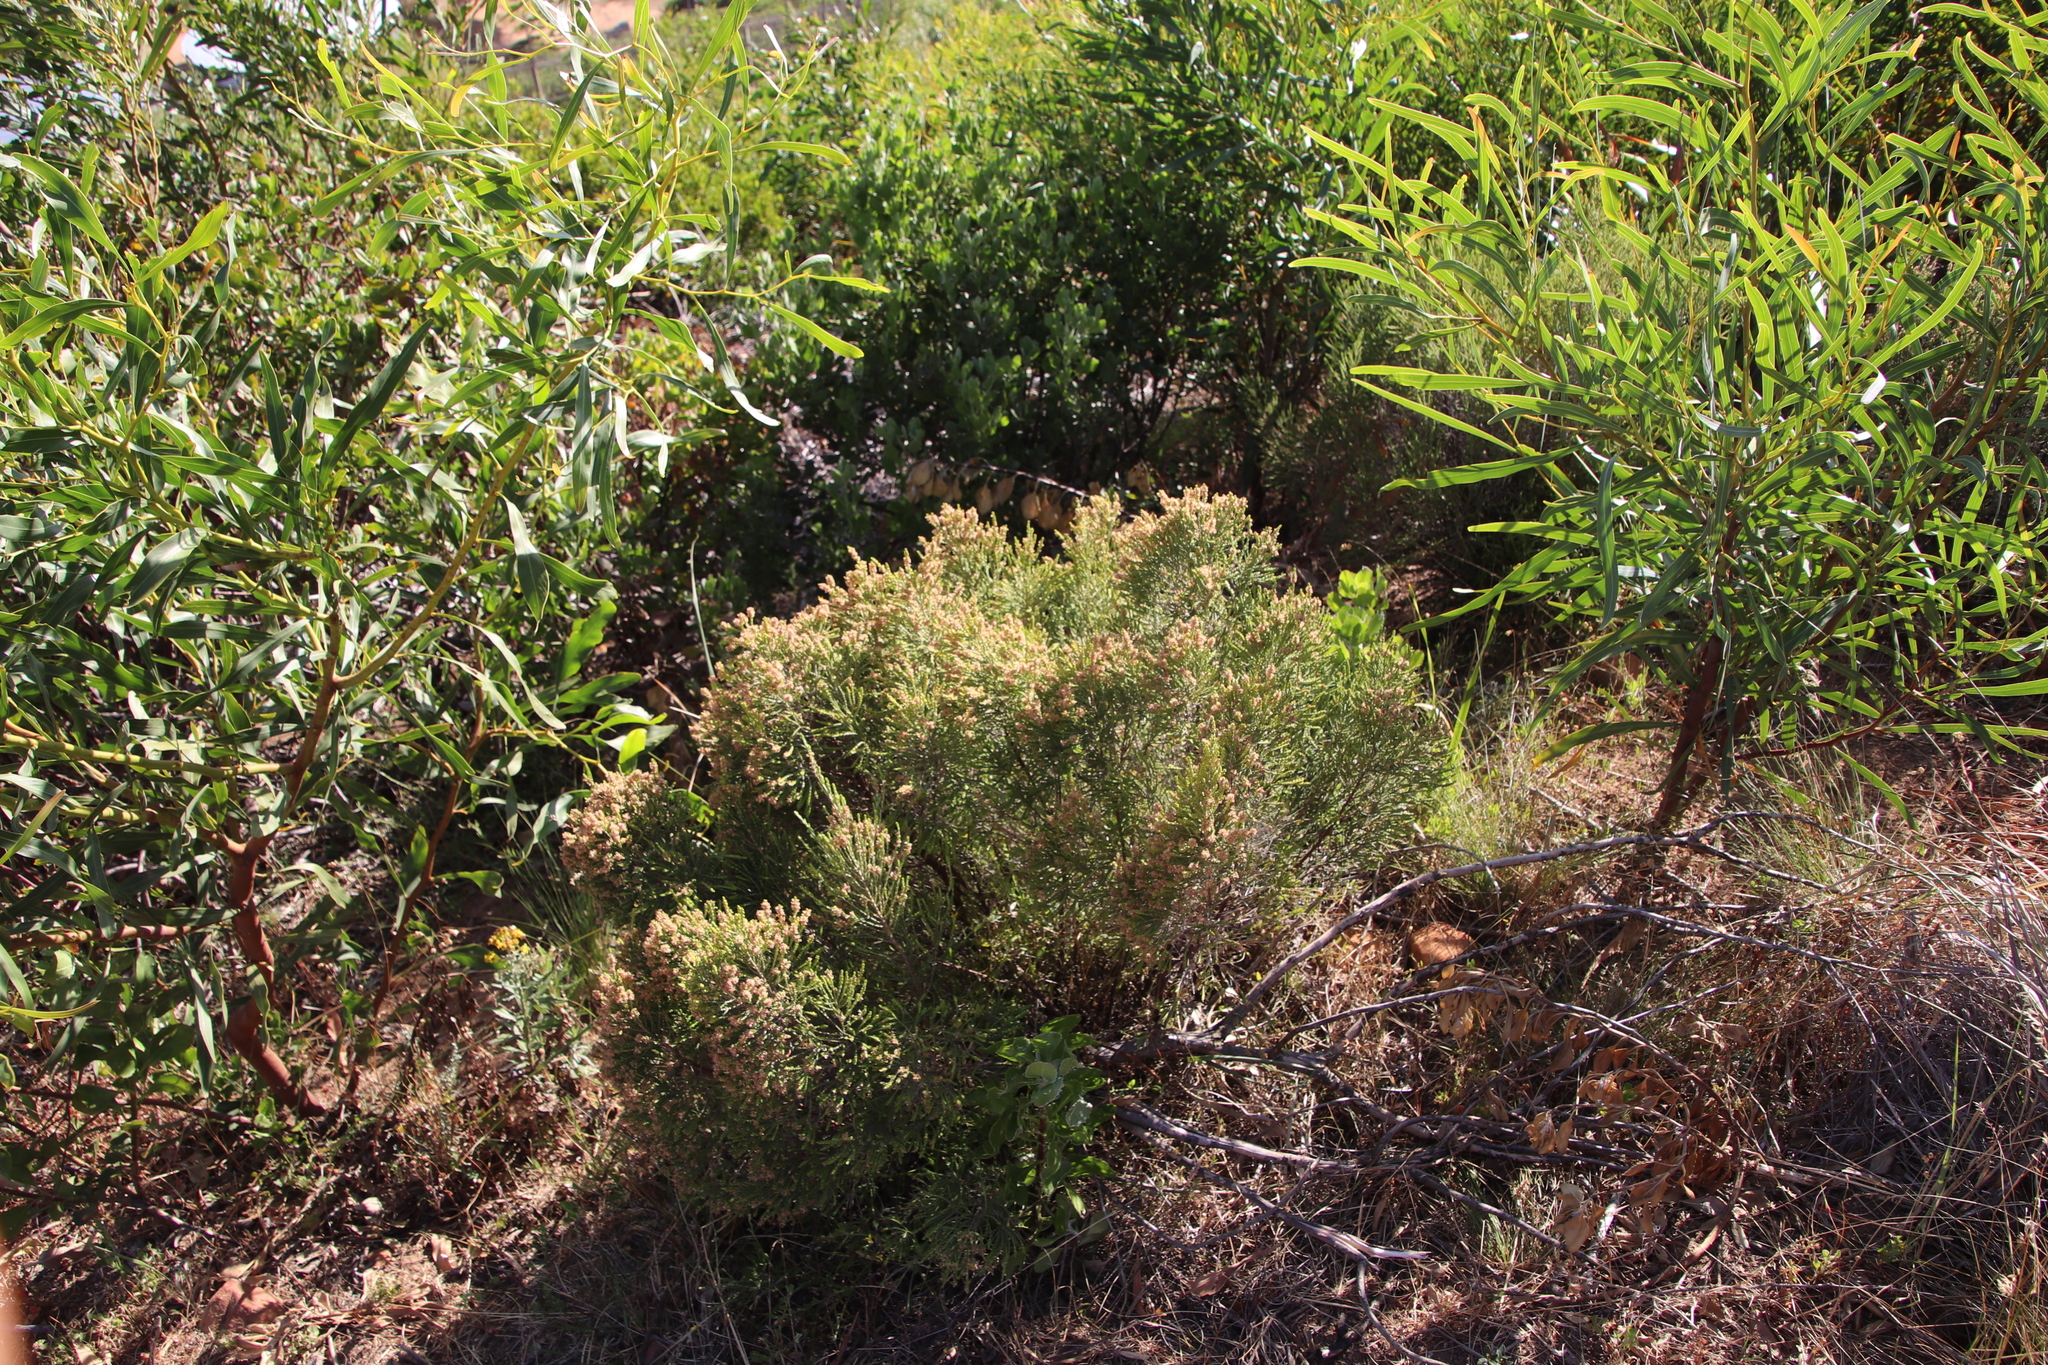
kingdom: Plantae
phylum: Tracheophyta
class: Magnoliopsida
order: Malvales
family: Thymelaeaceae
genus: Passerina
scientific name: Passerina corymbosa
